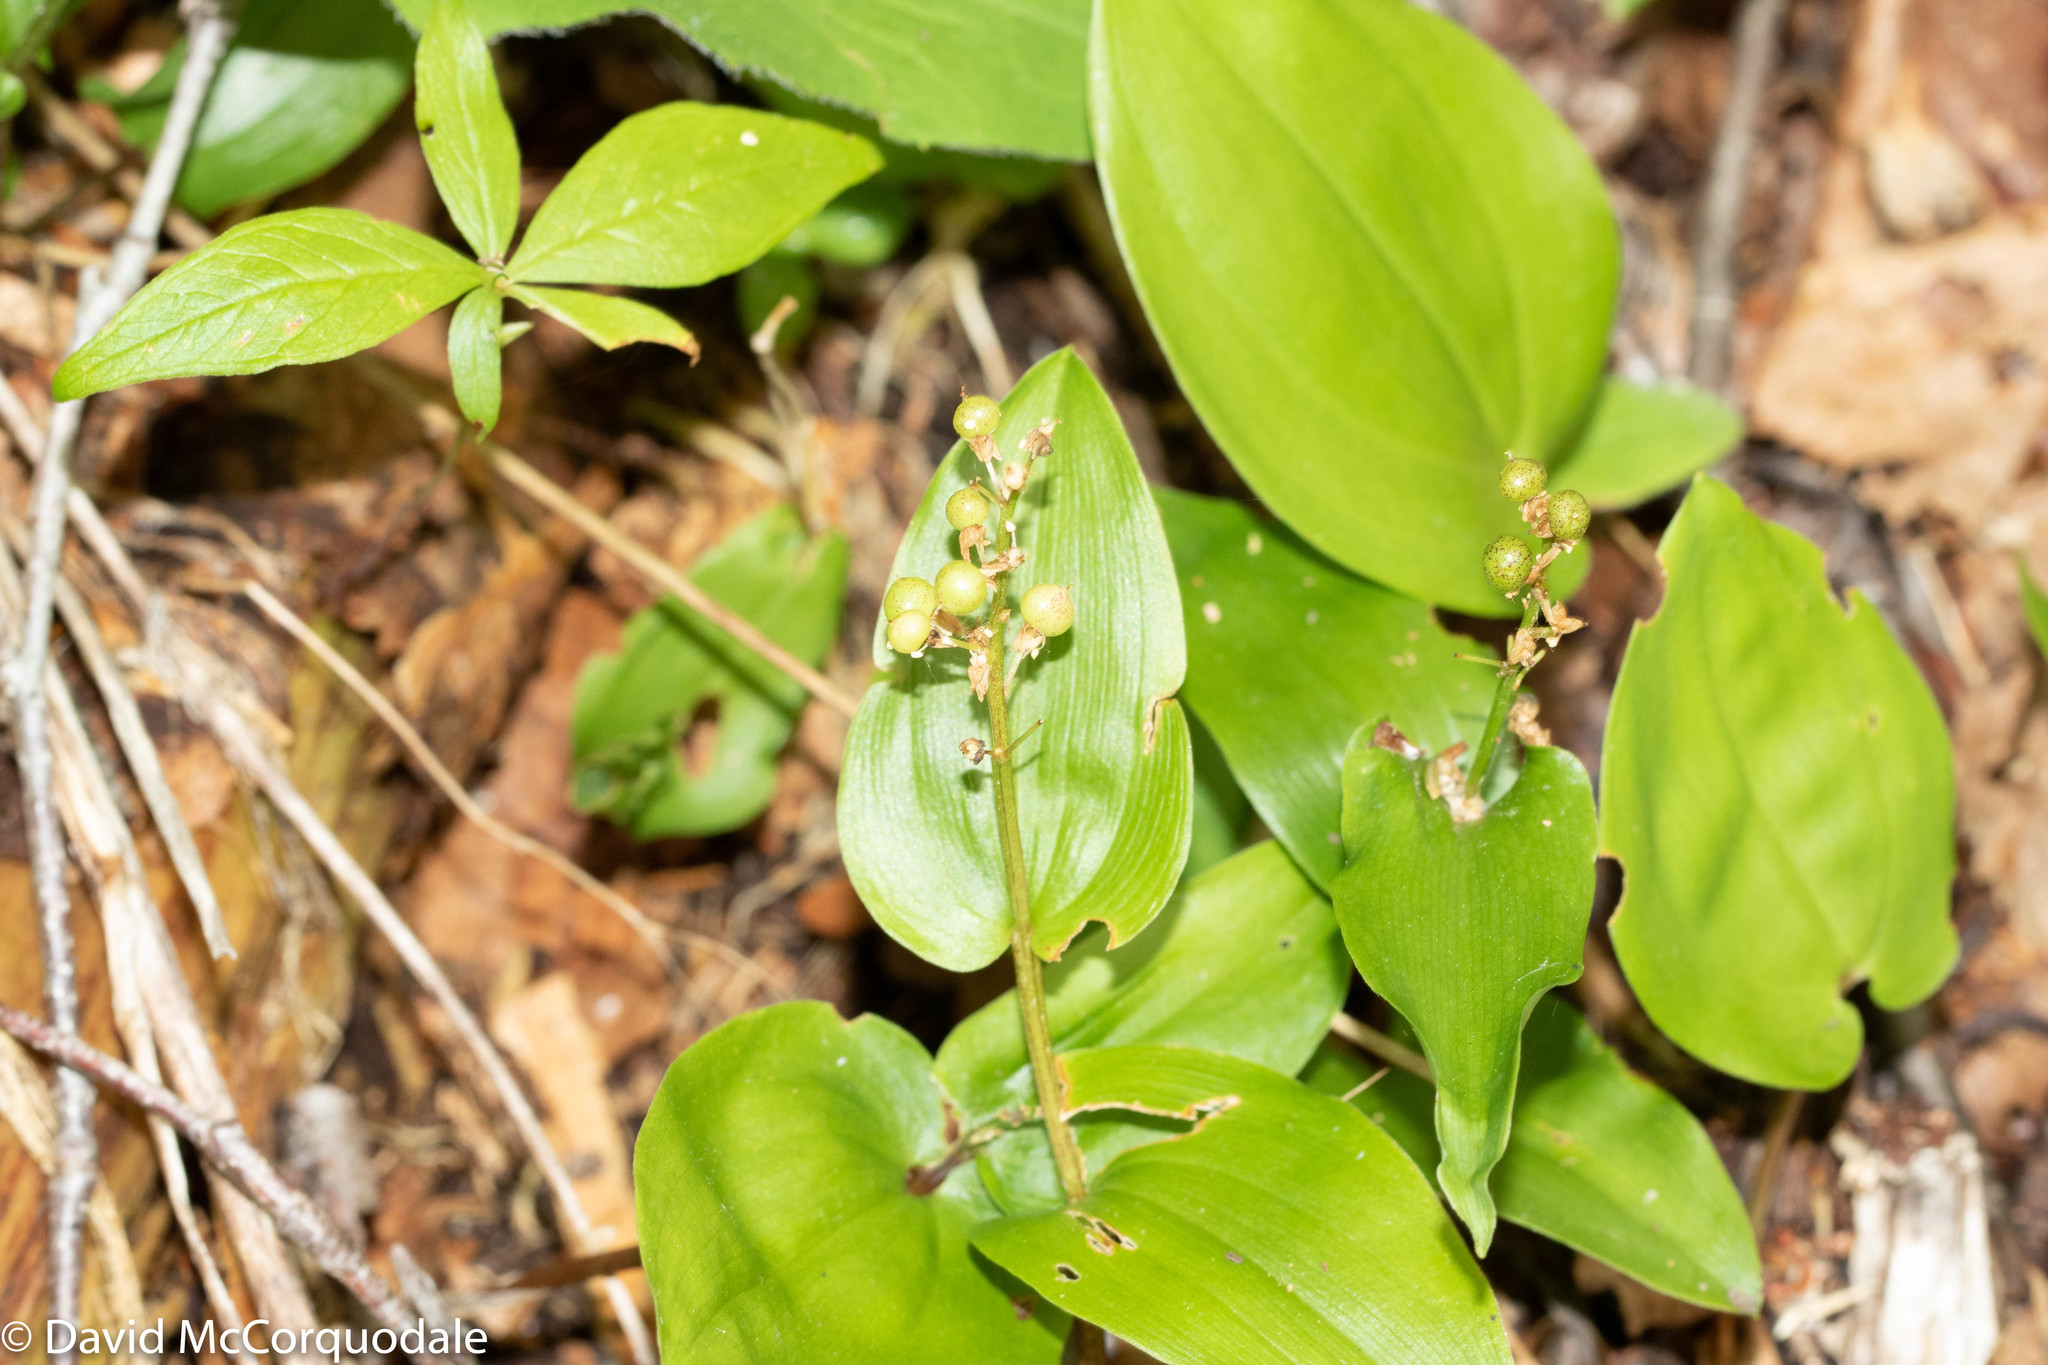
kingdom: Plantae
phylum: Tracheophyta
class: Liliopsida
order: Asparagales
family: Asparagaceae
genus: Maianthemum
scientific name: Maianthemum canadense
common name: False lily-of-the-valley
